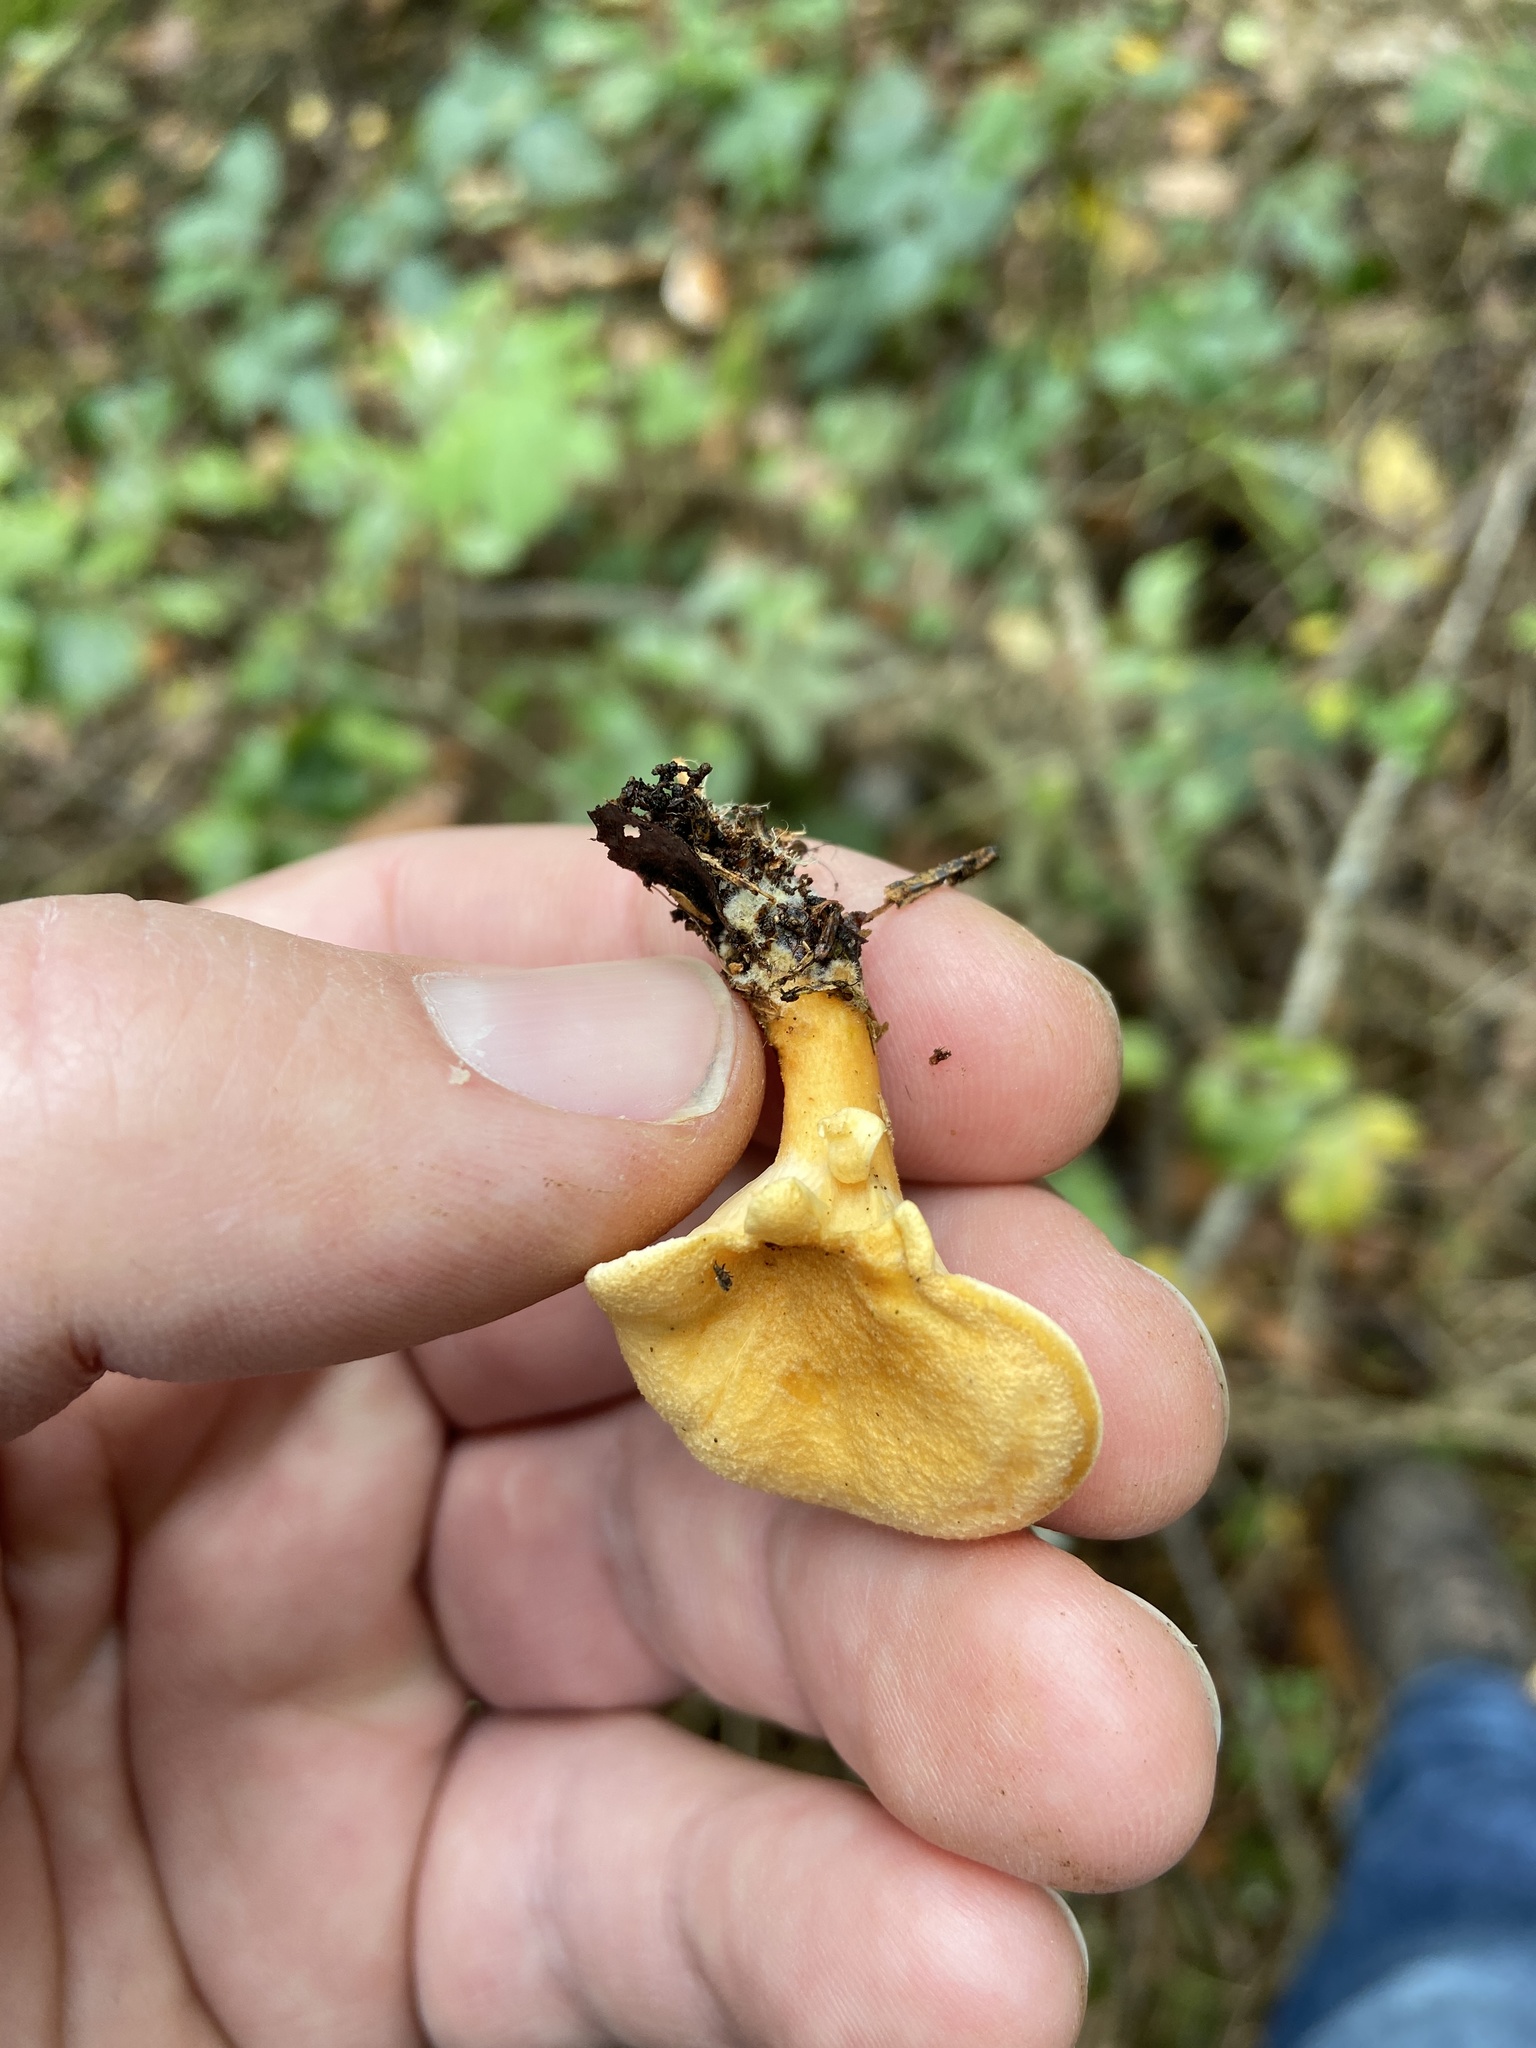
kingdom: Fungi
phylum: Basidiomycota
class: Agaricomycetes
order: Boletales
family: Hygrophoropsidaceae
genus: Hygrophoropsis
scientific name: Hygrophoropsis aurantiaca
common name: False chanterelle
